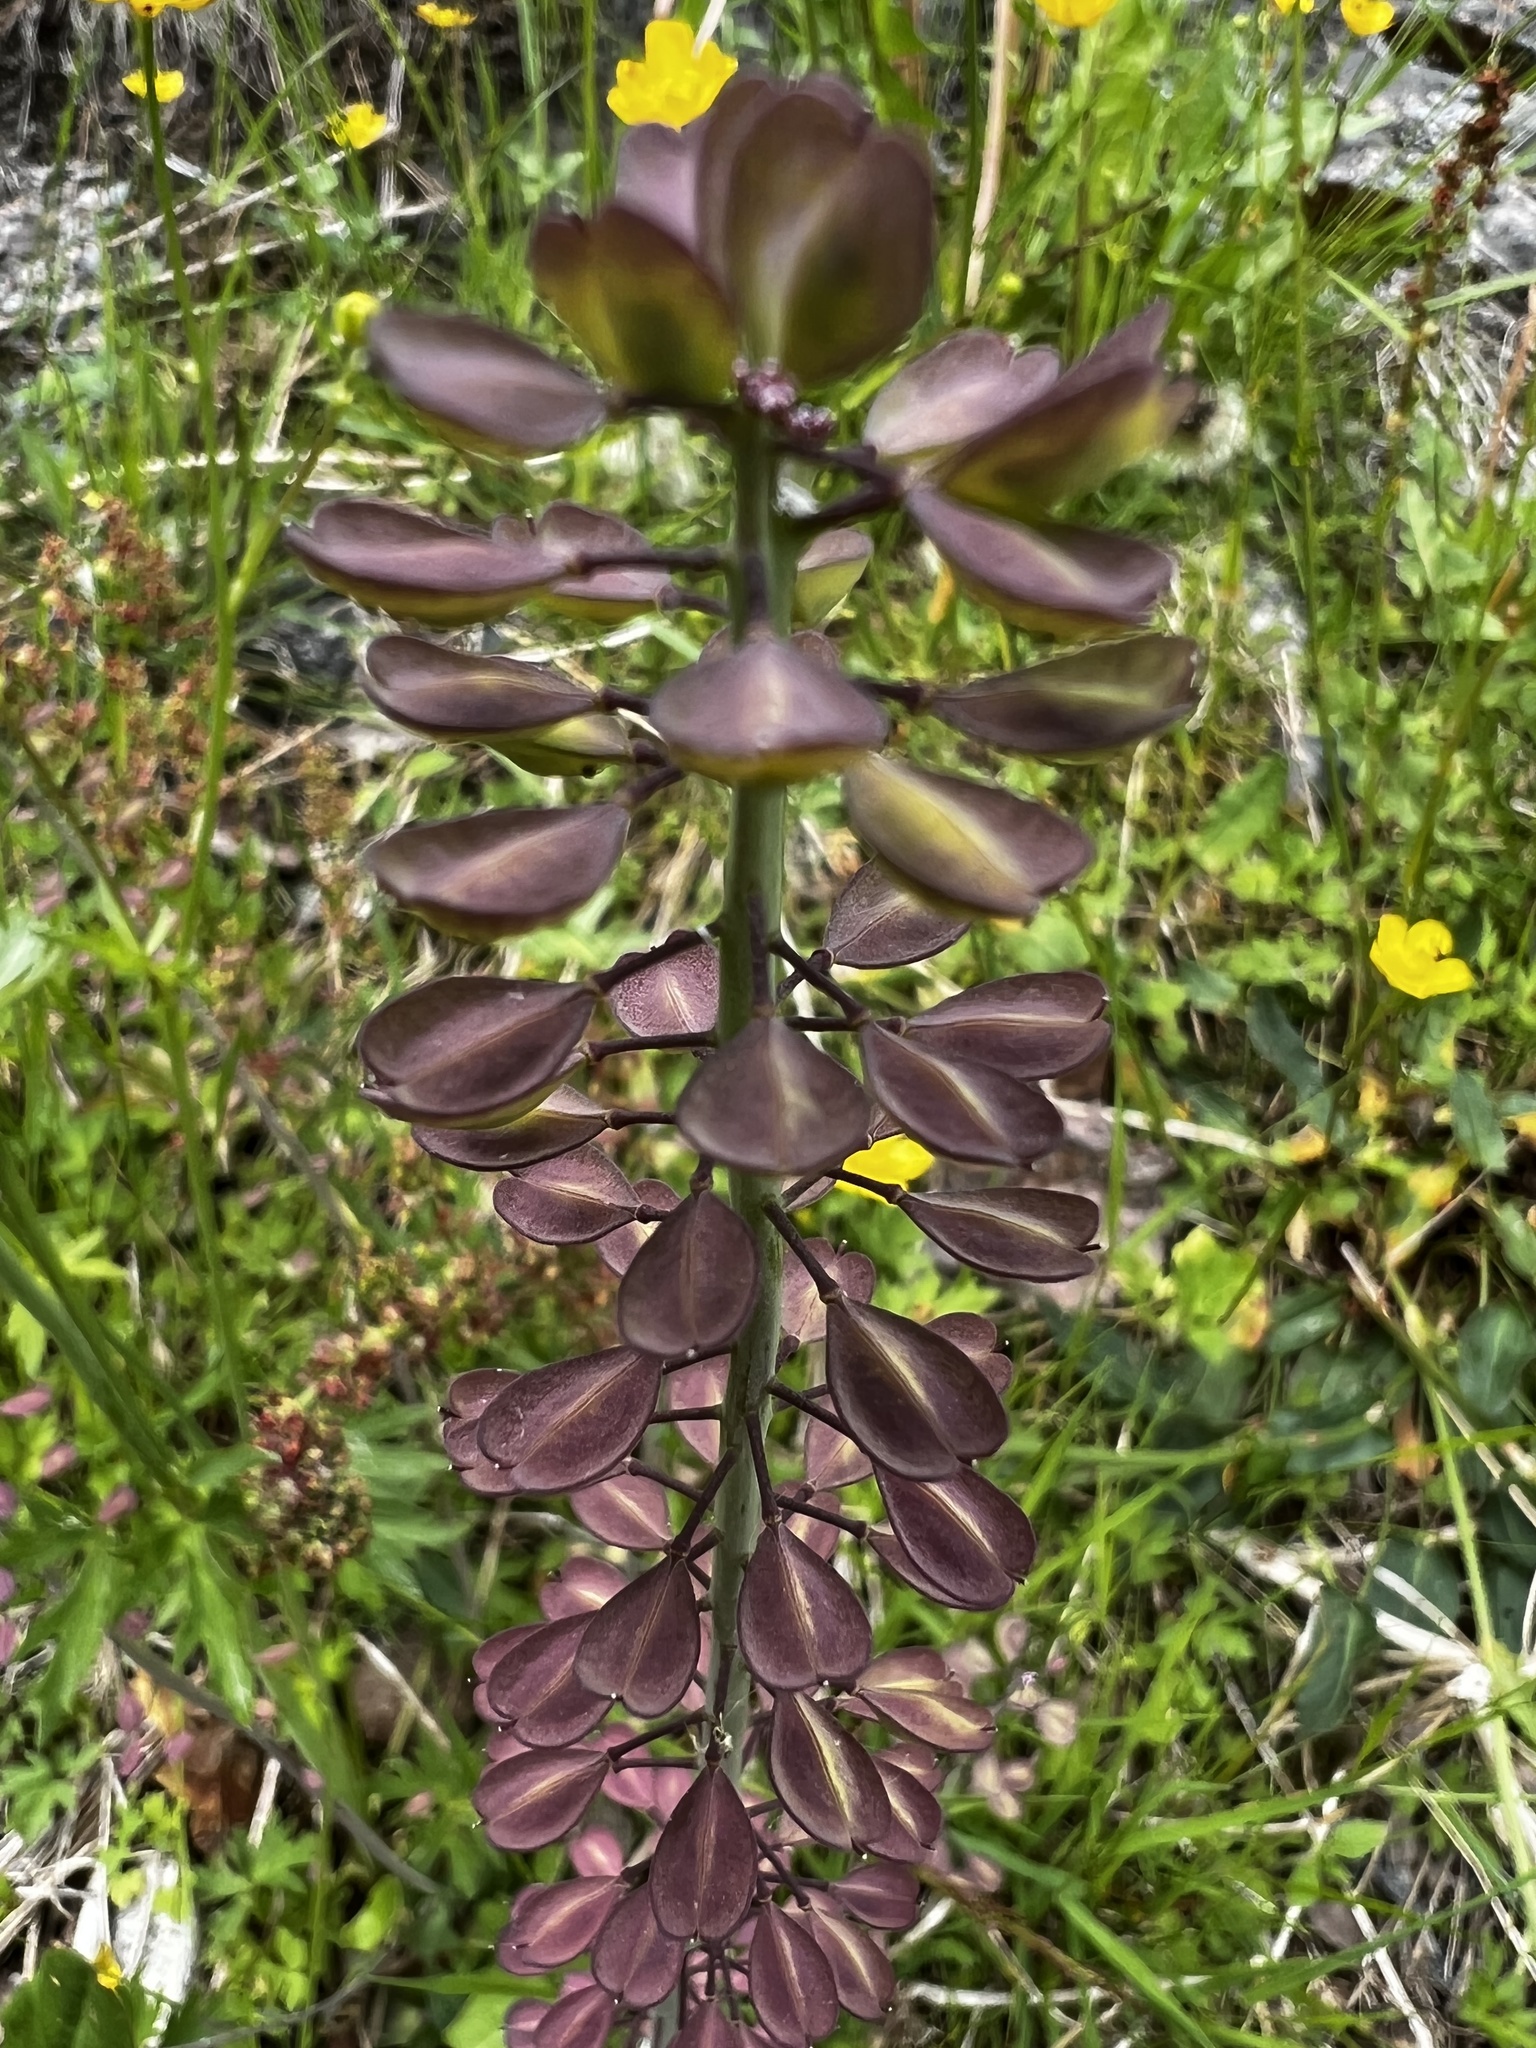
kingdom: Plantae
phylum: Tracheophyta
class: Magnoliopsida
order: Brassicales
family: Brassicaceae
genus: Noccaea
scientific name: Noccaea caerulescens
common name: Alpine pennycress
